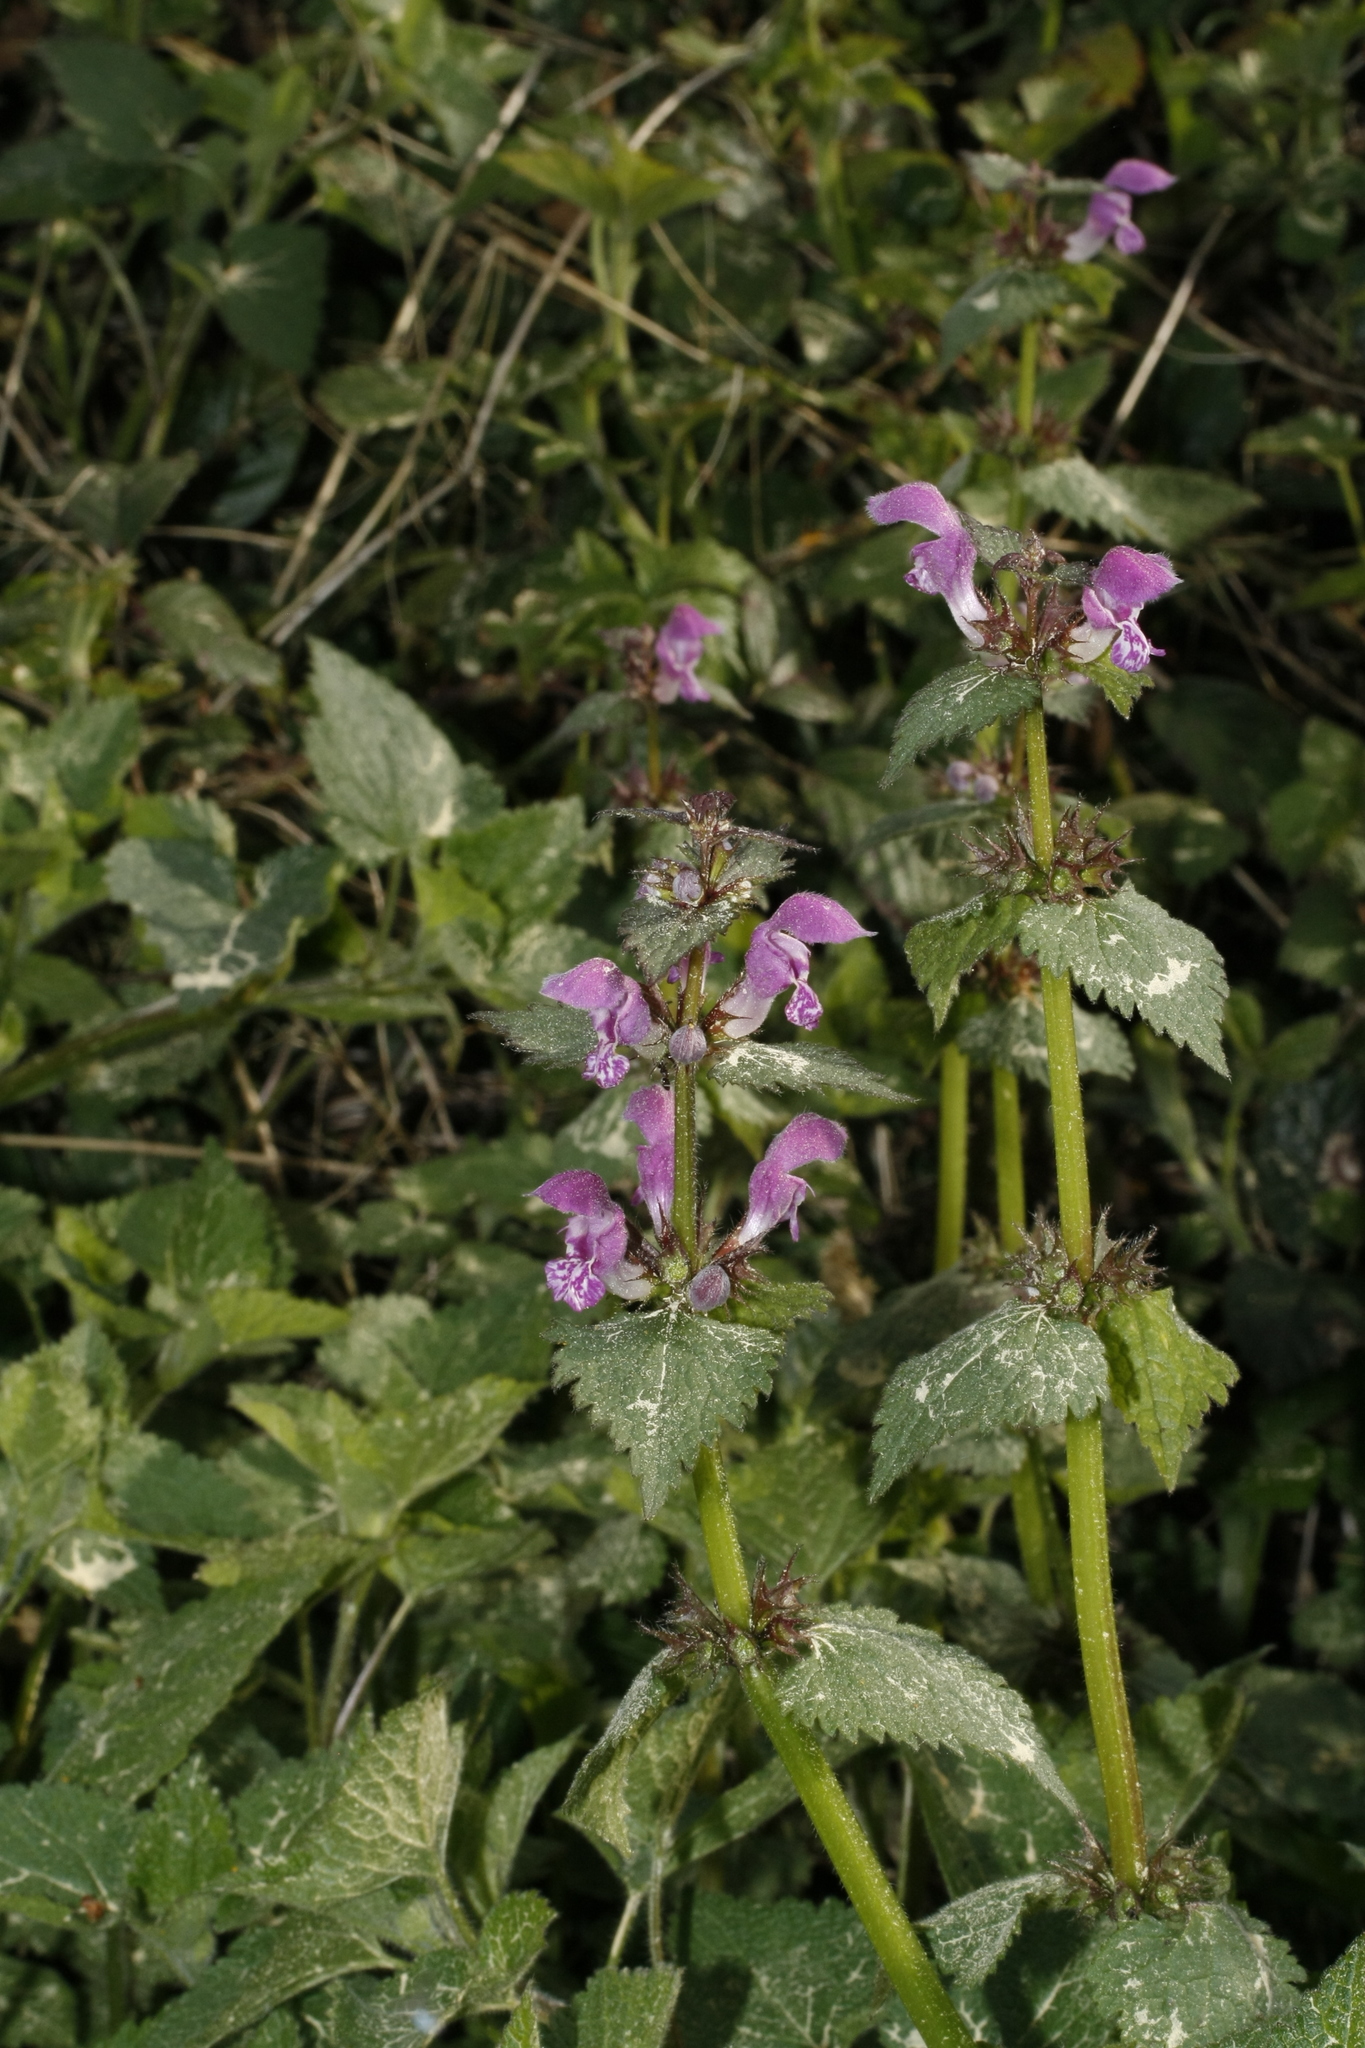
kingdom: Plantae
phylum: Tracheophyta
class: Magnoliopsida
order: Lamiales
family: Lamiaceae
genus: Lamium
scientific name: Lamium maculatum
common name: Spotted dead-nettle
